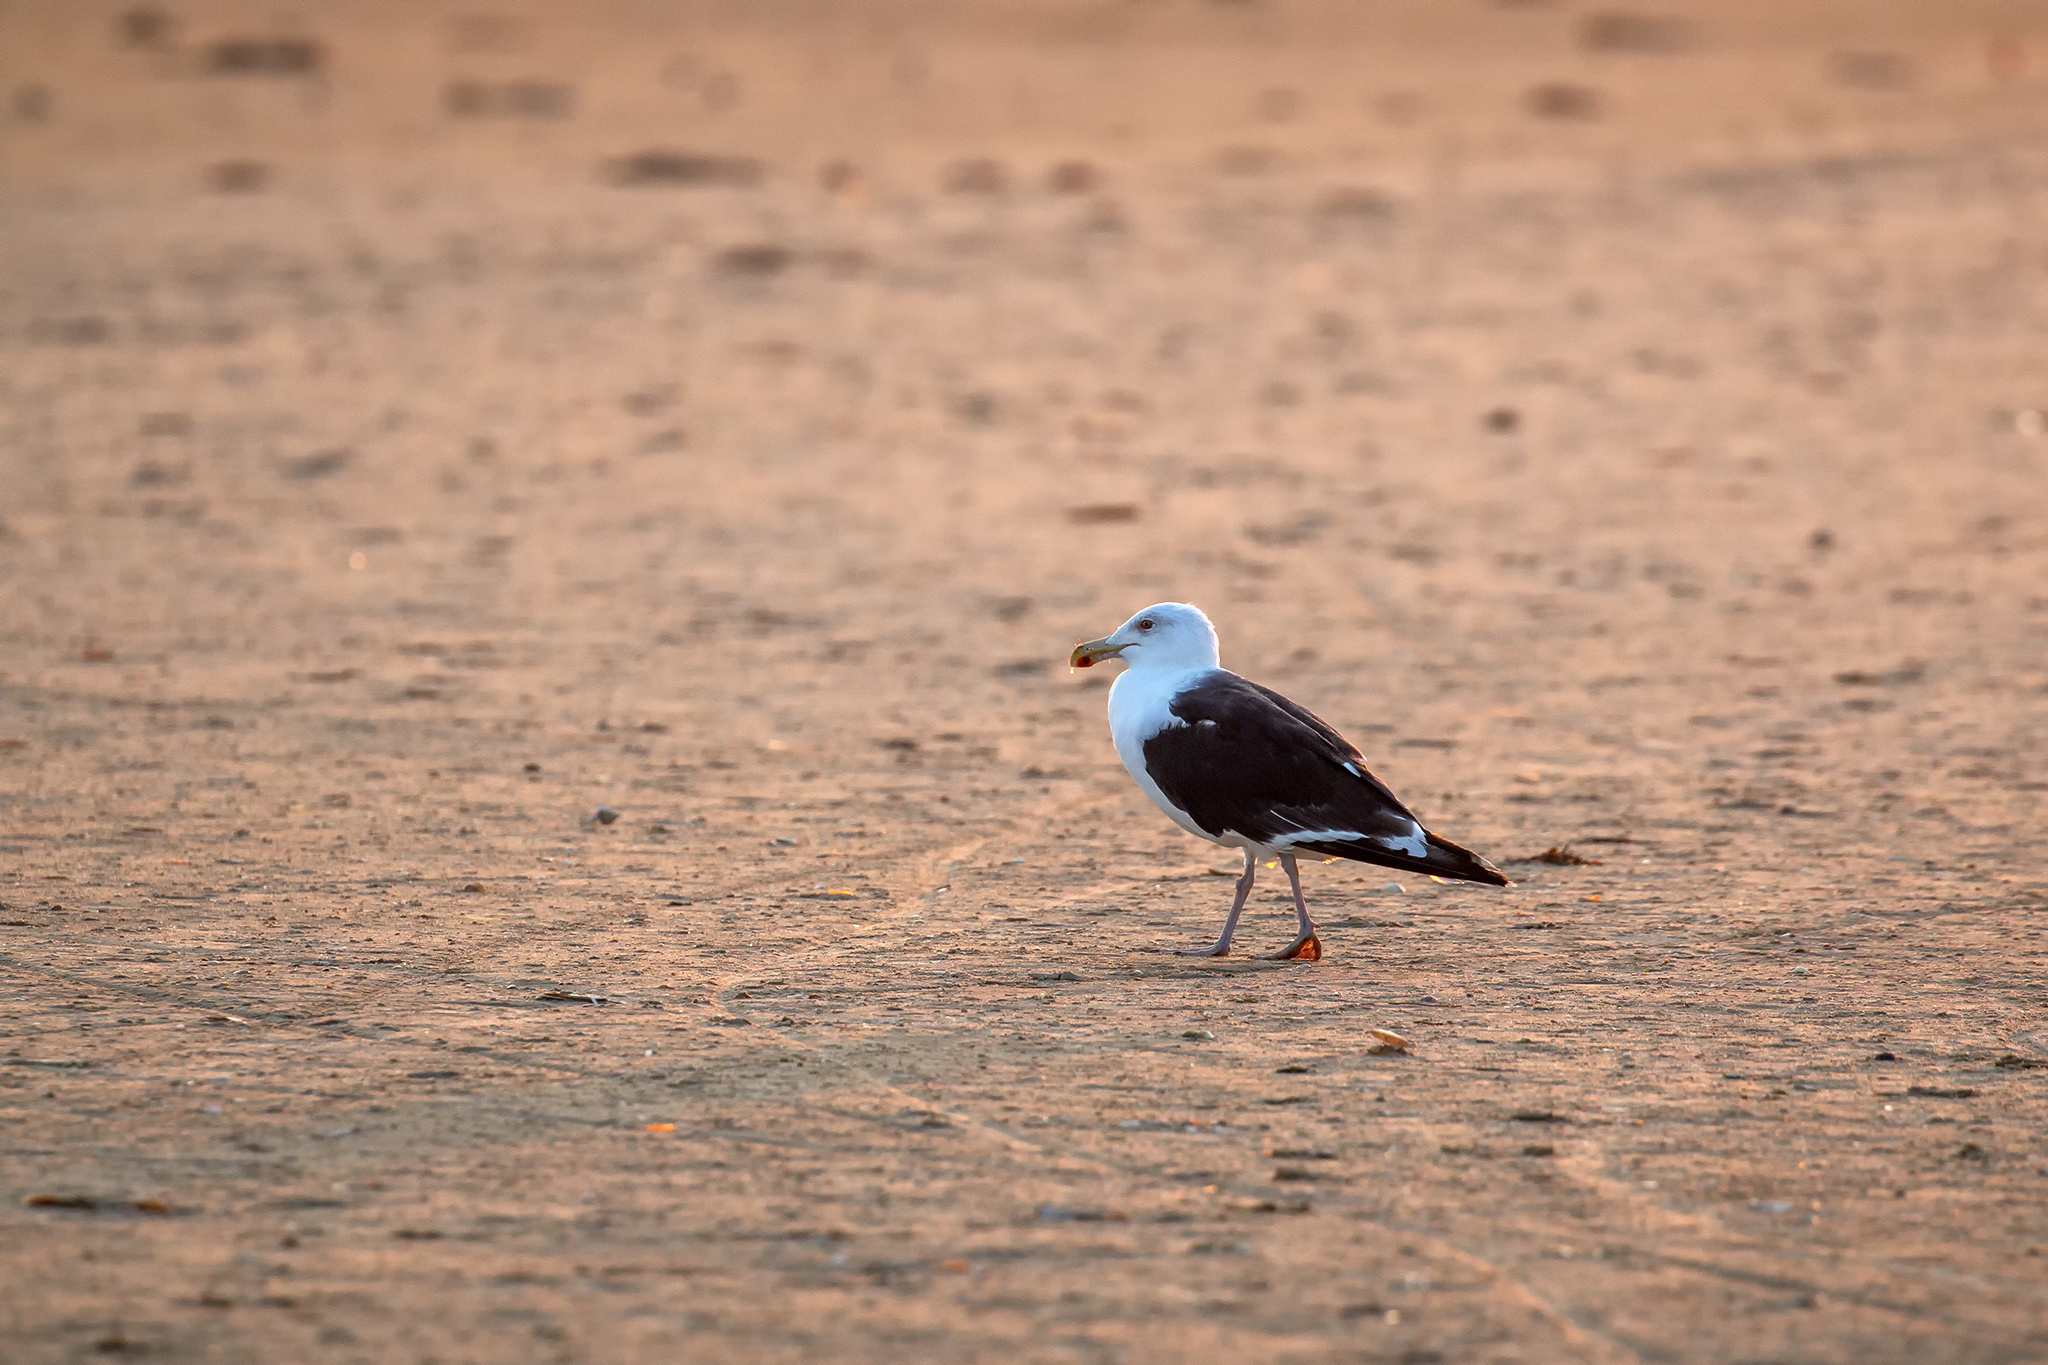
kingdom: Animalia
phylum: Chordata
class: Aves
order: Charadriiformes
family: Laridae
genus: Larus
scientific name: Larus marinus
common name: Great black-backed gull
